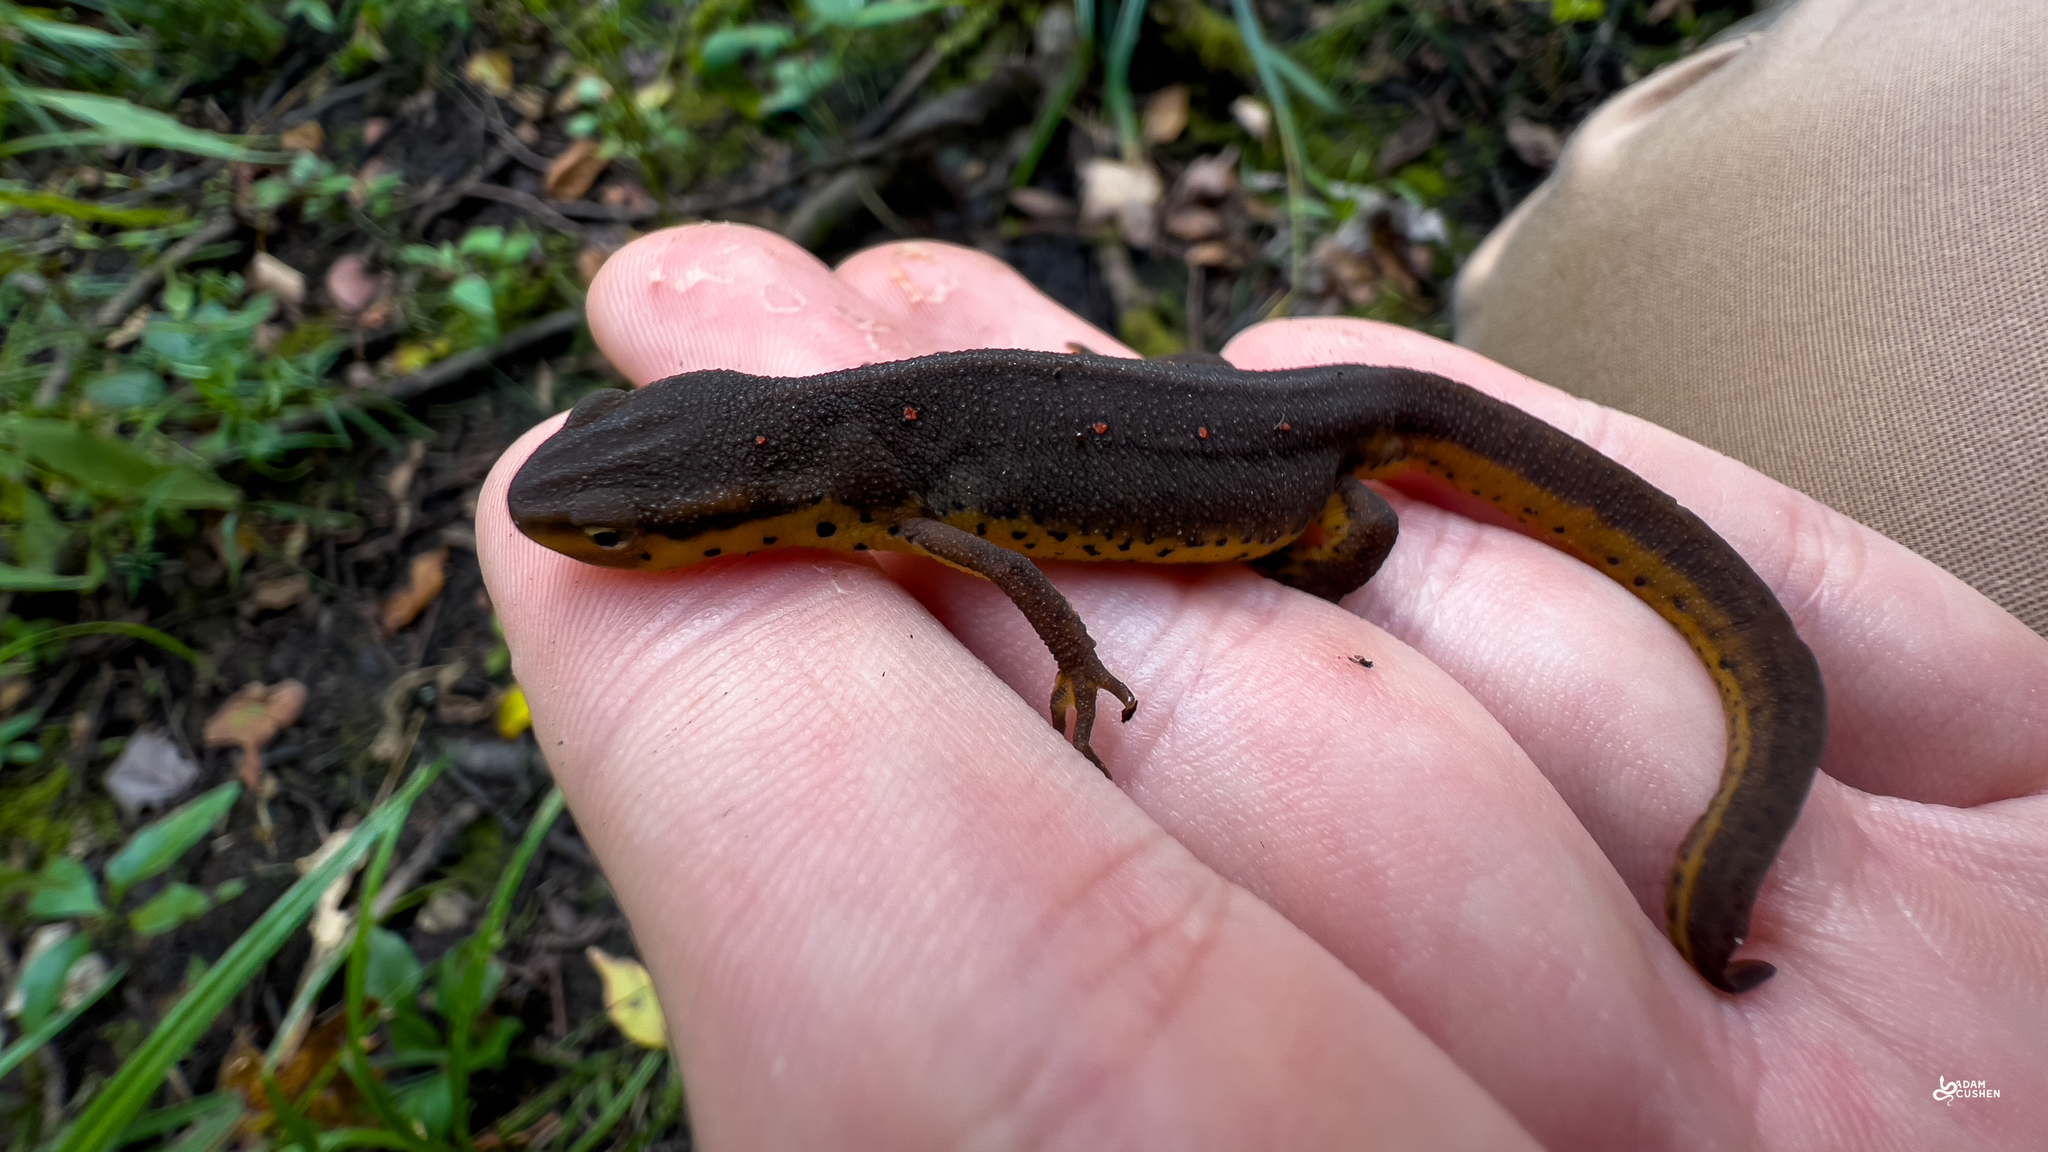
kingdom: Animalia
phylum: Chordata
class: Amphibia
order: Caudata
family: Salamandridae
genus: Notophthalmus
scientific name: Notophthalmus viridescens
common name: Eastern newt
